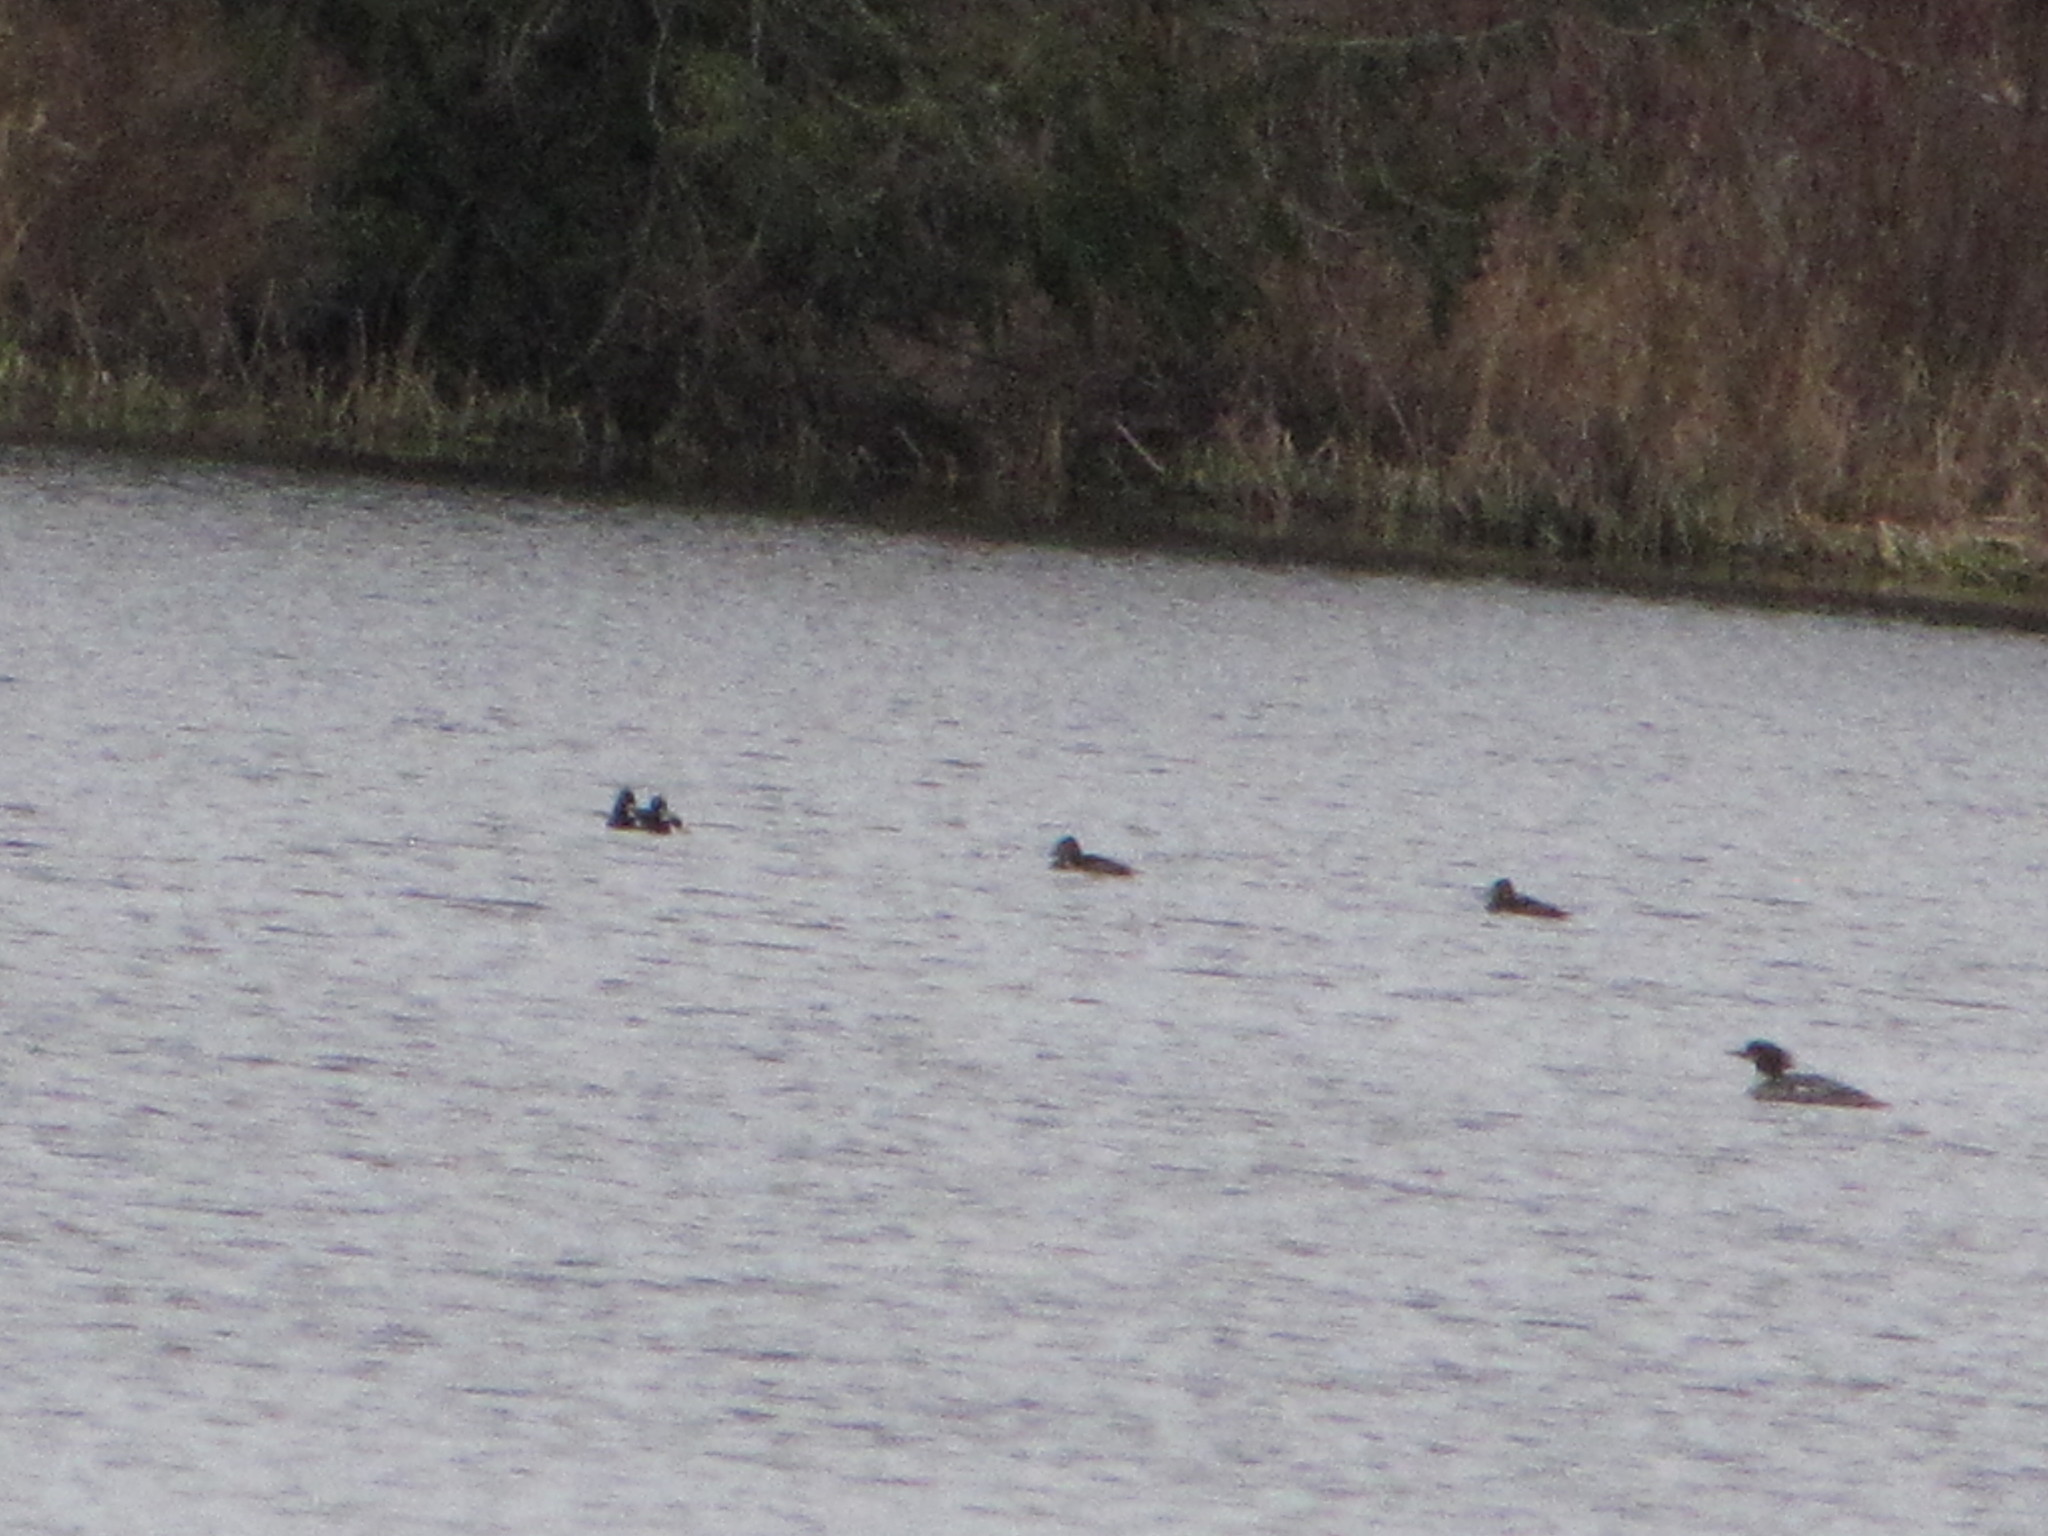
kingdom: Animalia
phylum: Chordata
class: Aves
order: Anseriformes
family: Anatidae
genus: Mergus
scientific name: Mergus merganser
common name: Common merganser
